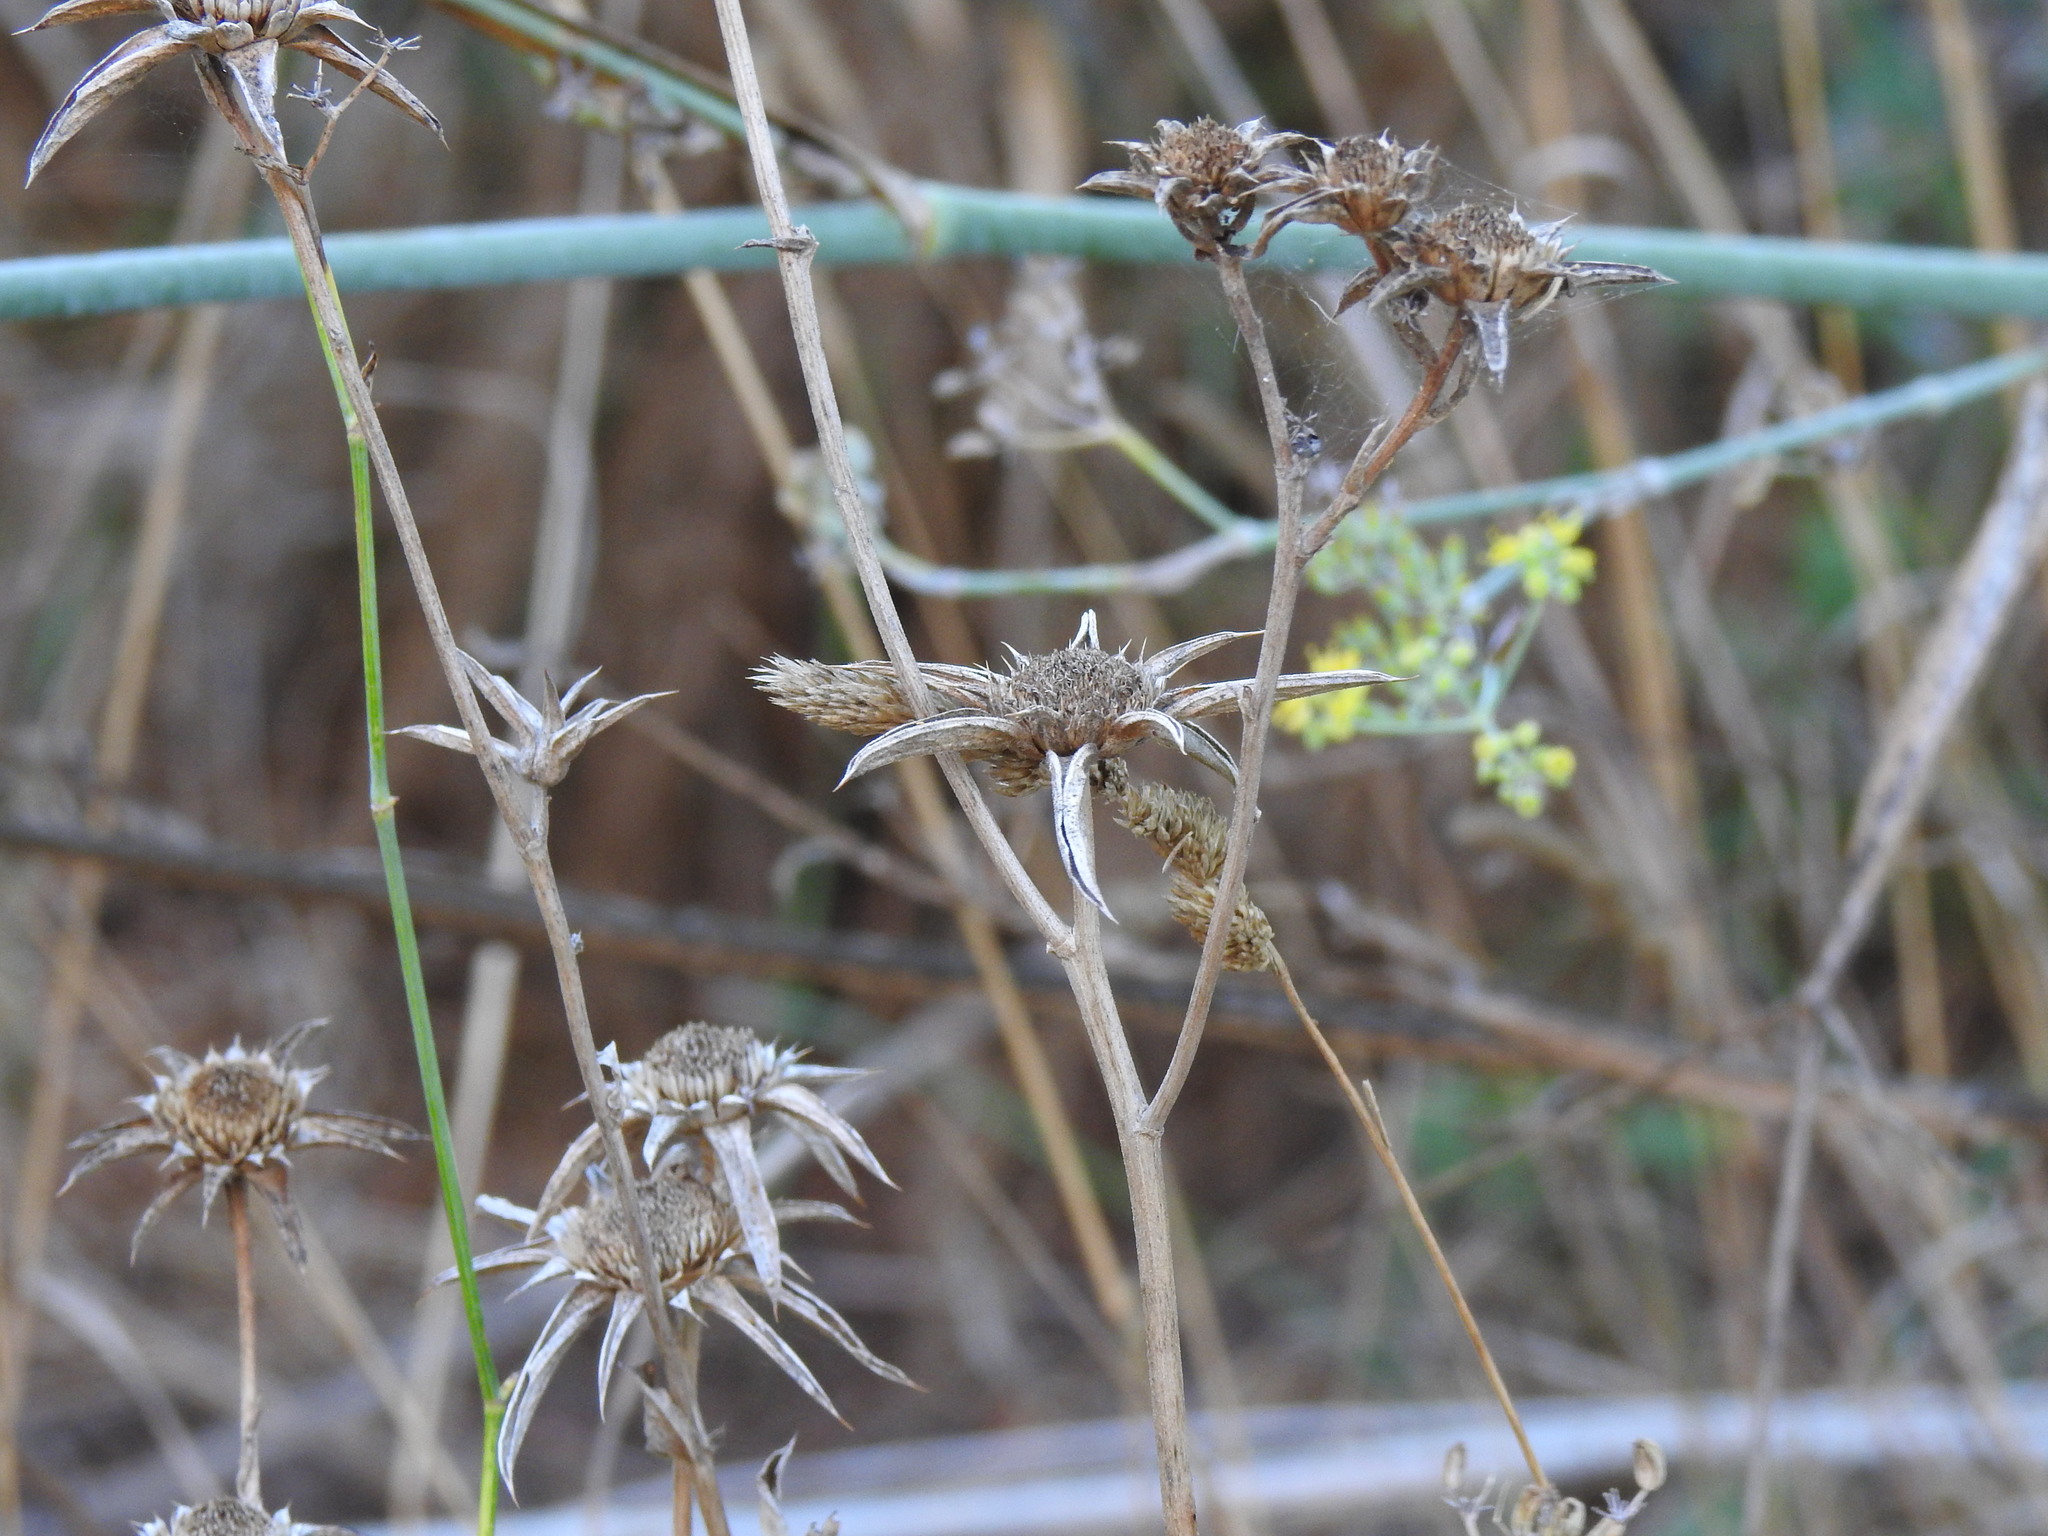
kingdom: Plantae
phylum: Tracheophyta
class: Magnoliopsida
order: Asterales
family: Asteraceae
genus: Pallenis
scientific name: Pallenis spinosa
